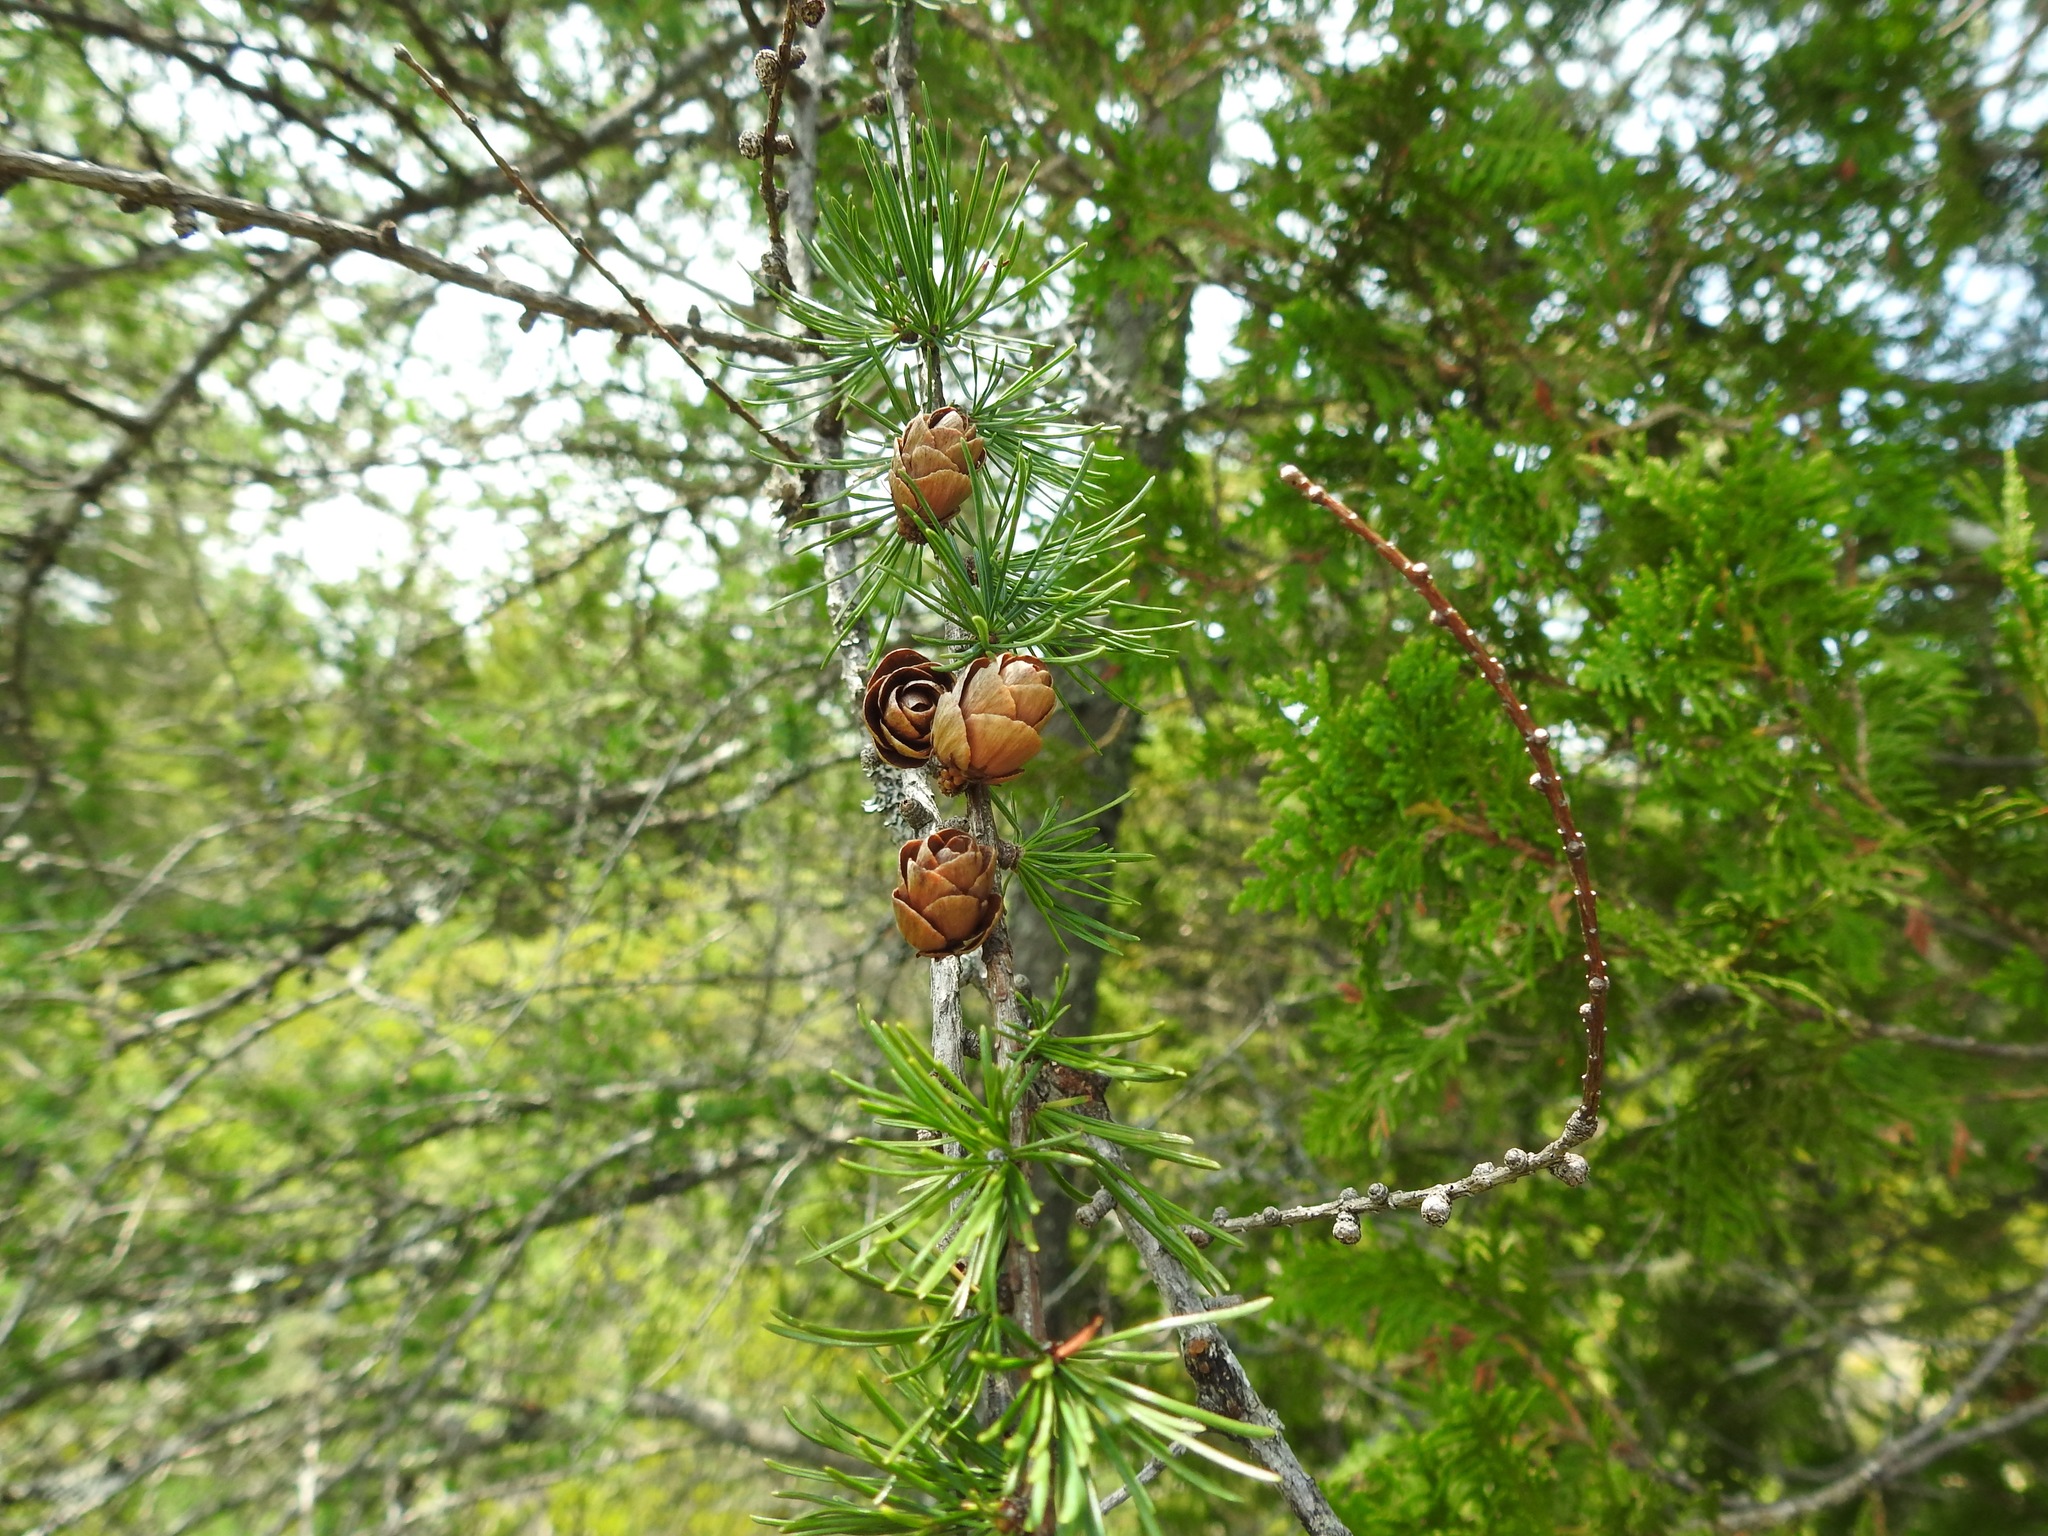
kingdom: Plantae
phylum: Tracheophyta
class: Pinopsida
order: Pinales
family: Pinaceae
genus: Larix
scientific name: Larix laricina
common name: American larch
